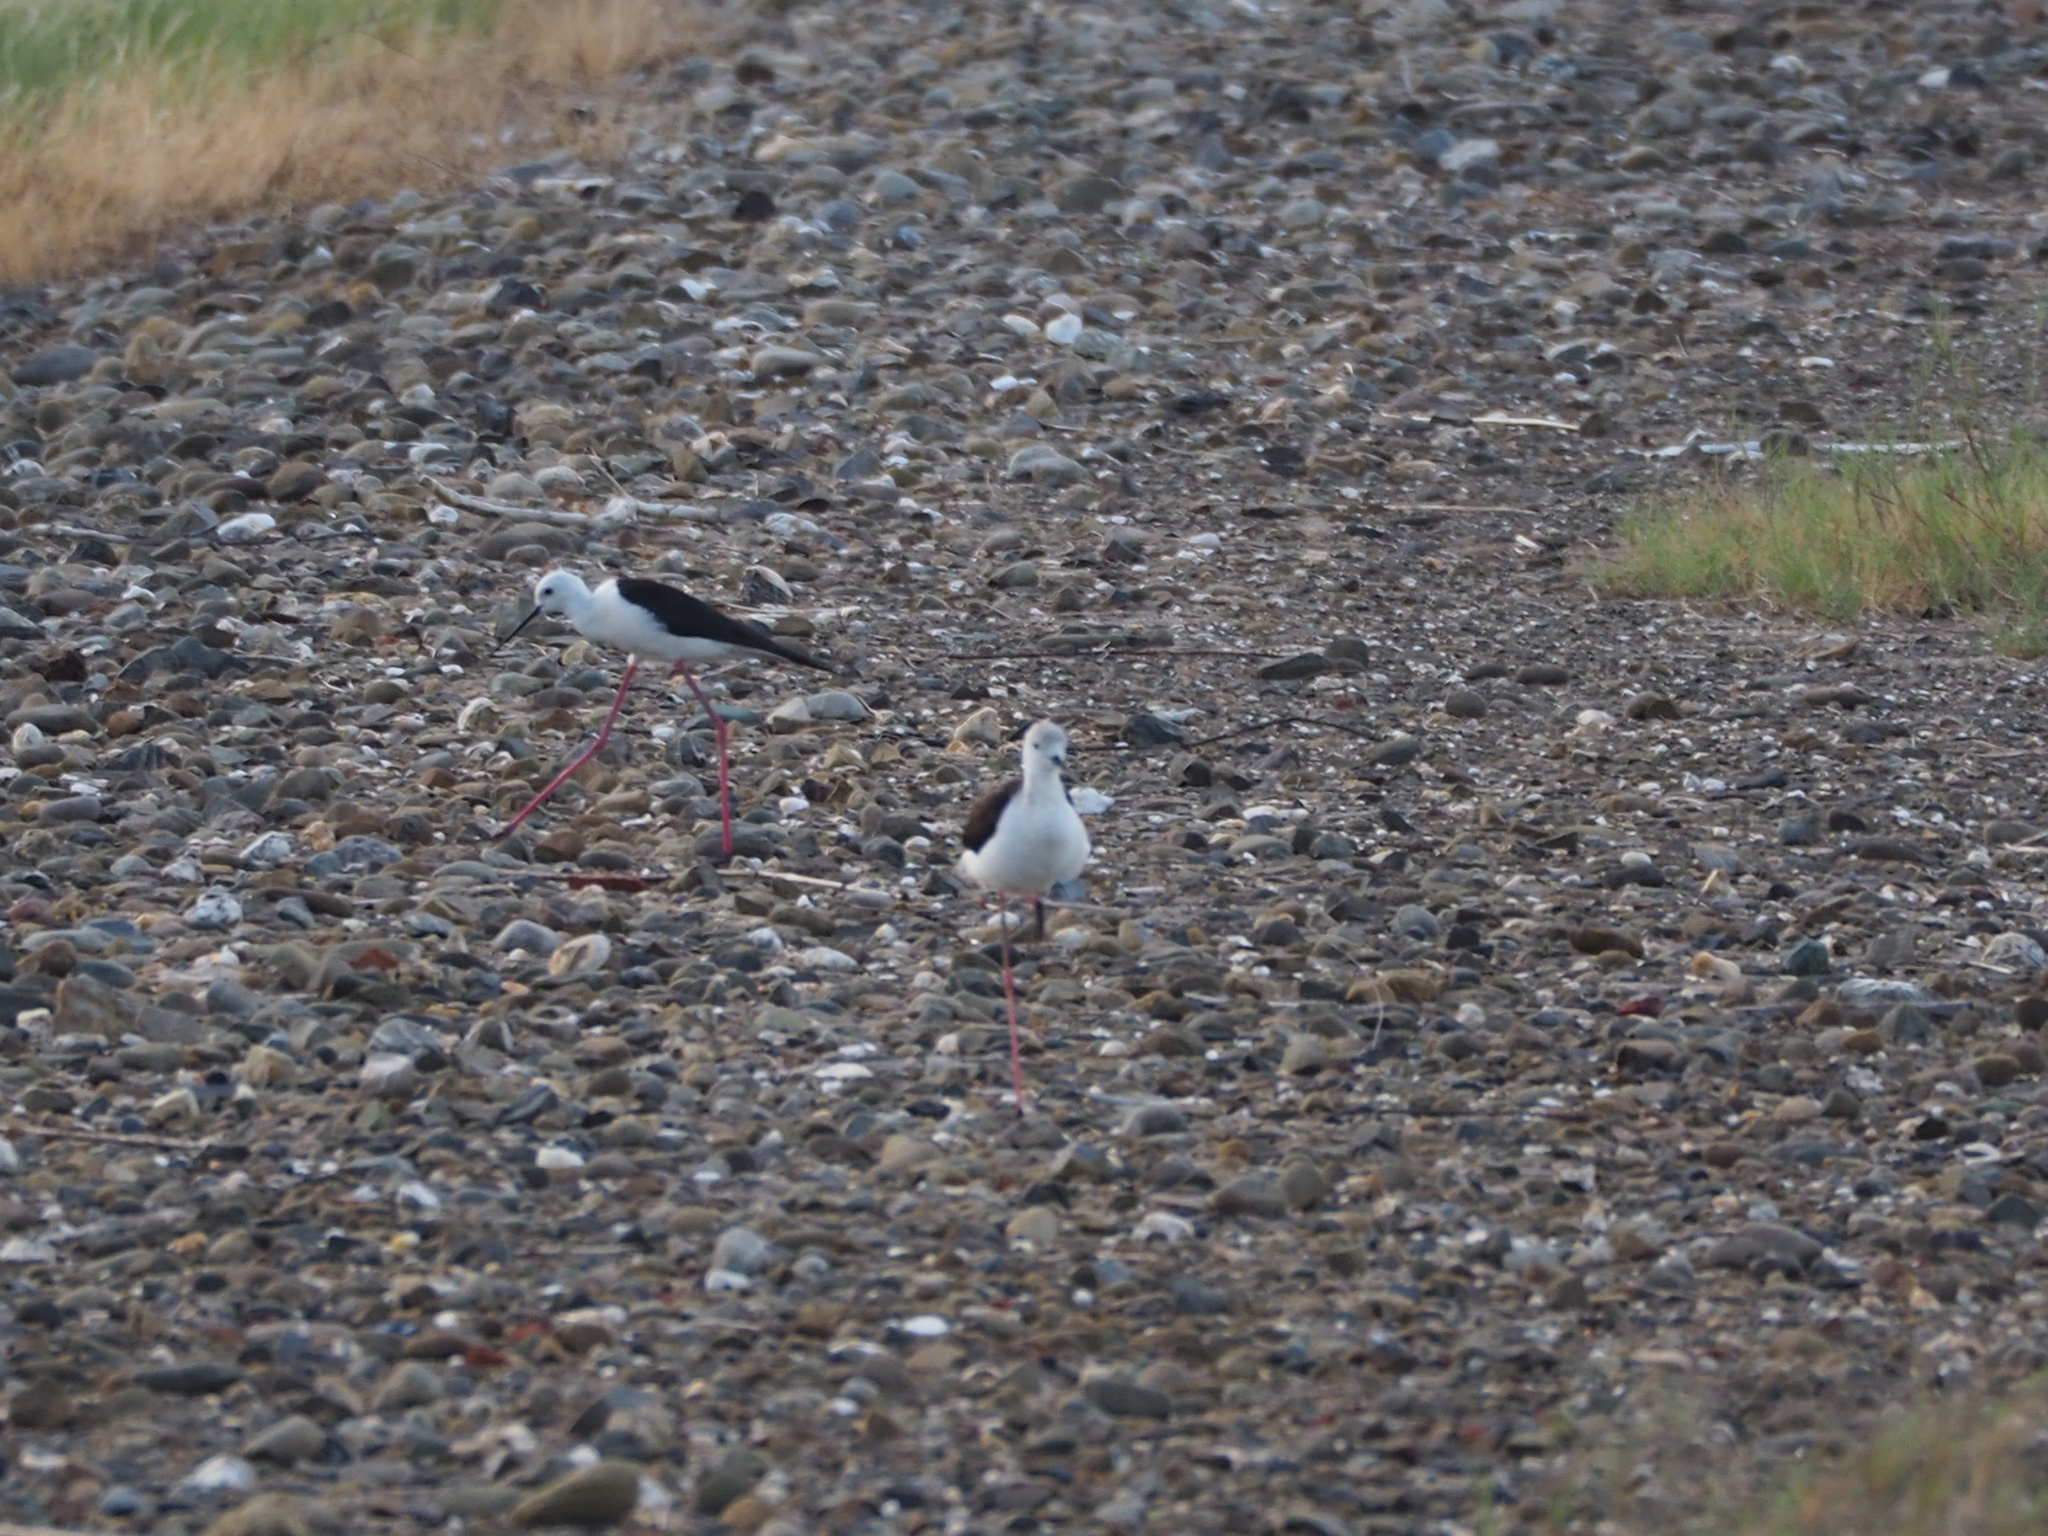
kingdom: Animalia
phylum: Chordata
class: Aves
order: Charadriiformes
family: Recurvirostridae
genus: Himantopus
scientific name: Himantopus himantopus
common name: Black-winged stilt
